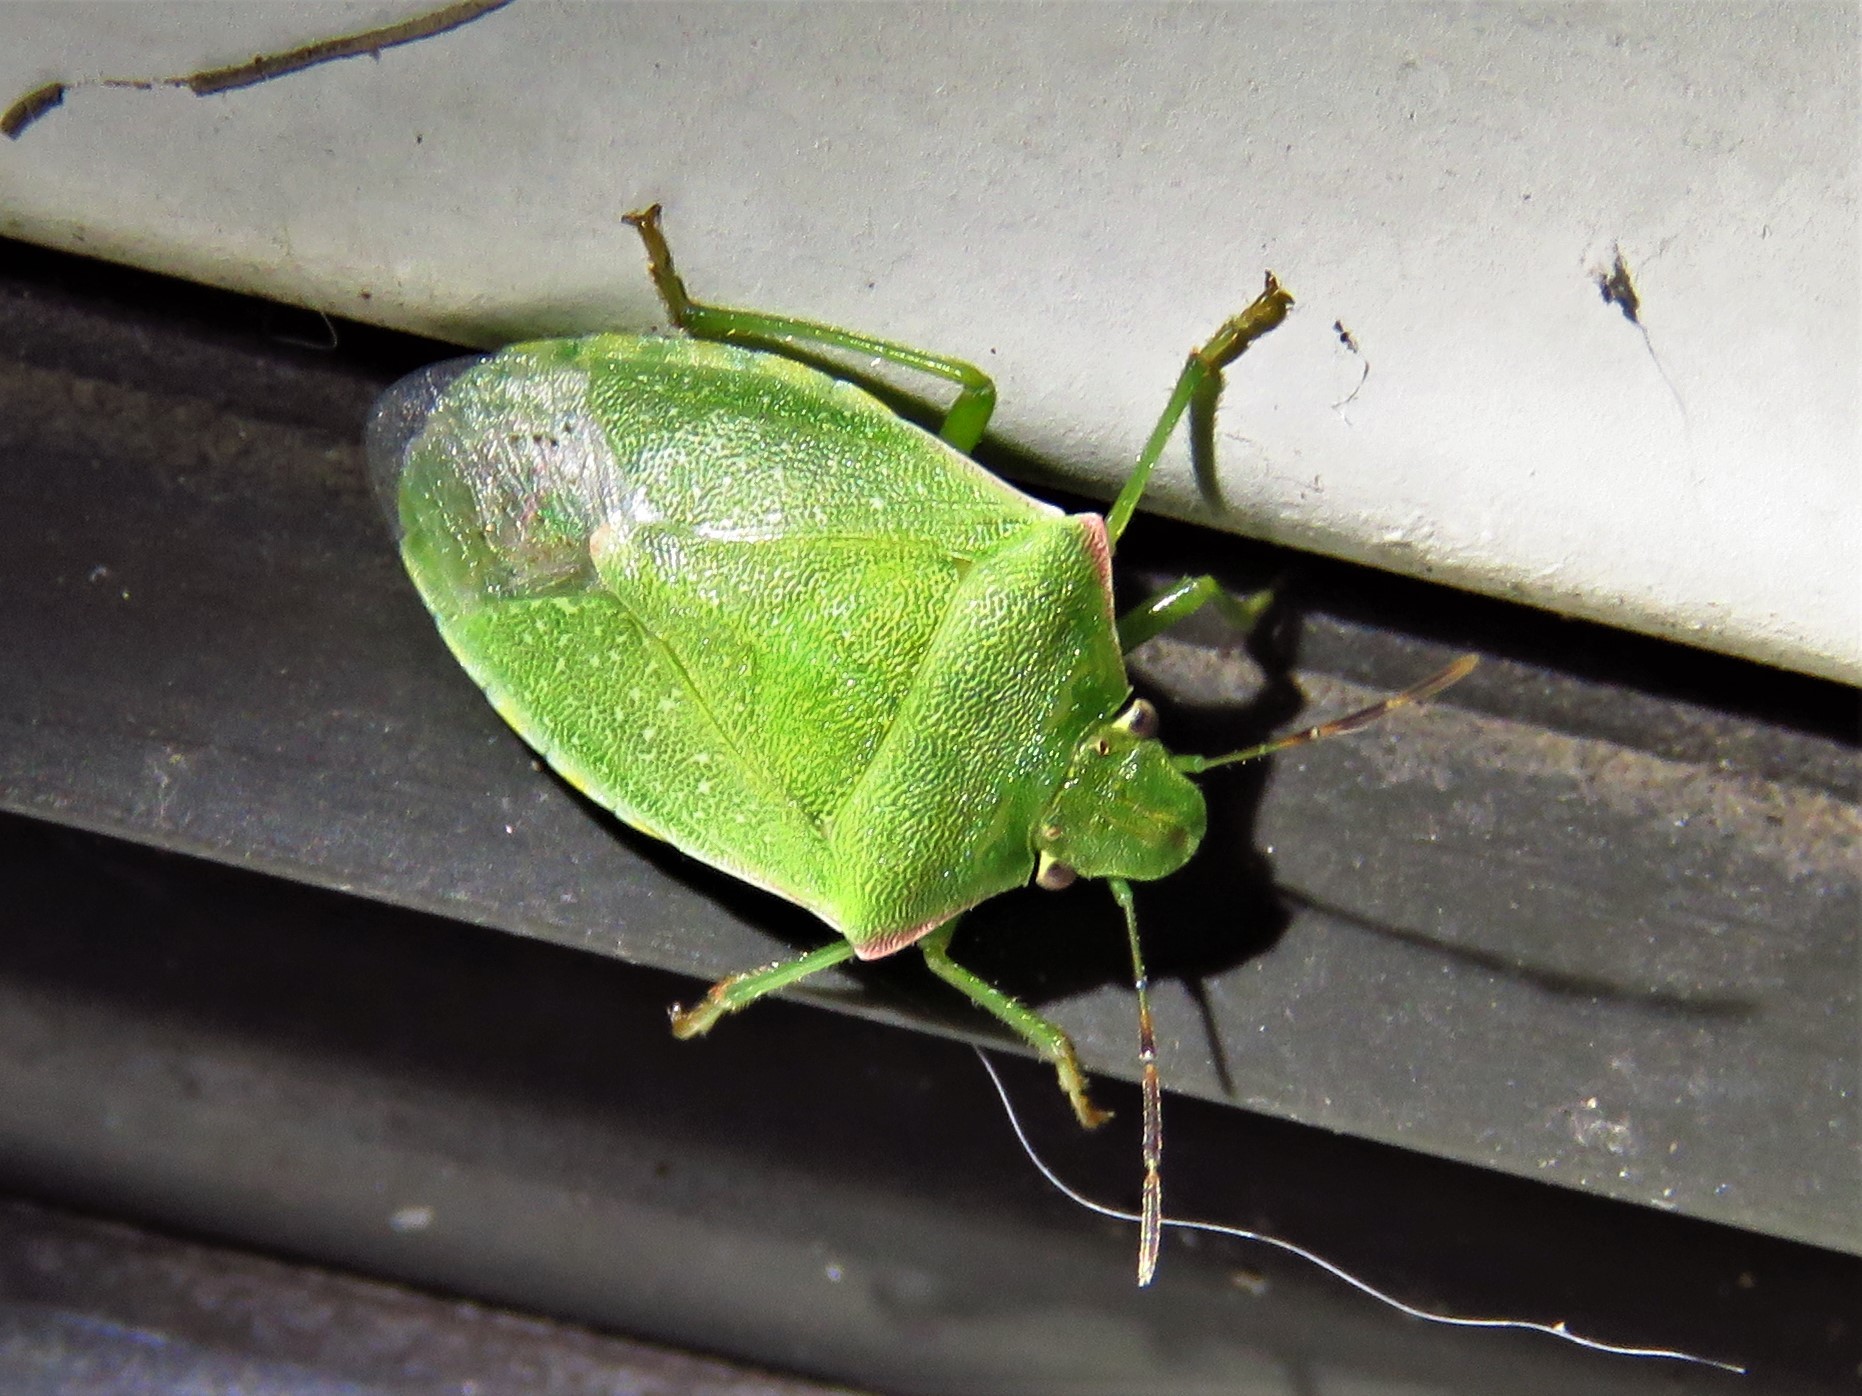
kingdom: Animalia
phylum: Arthropoda
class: Insecta
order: Hemiptera
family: Pentatomidae
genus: Thyanta
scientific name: Thyanta accerra
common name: Stink bug
